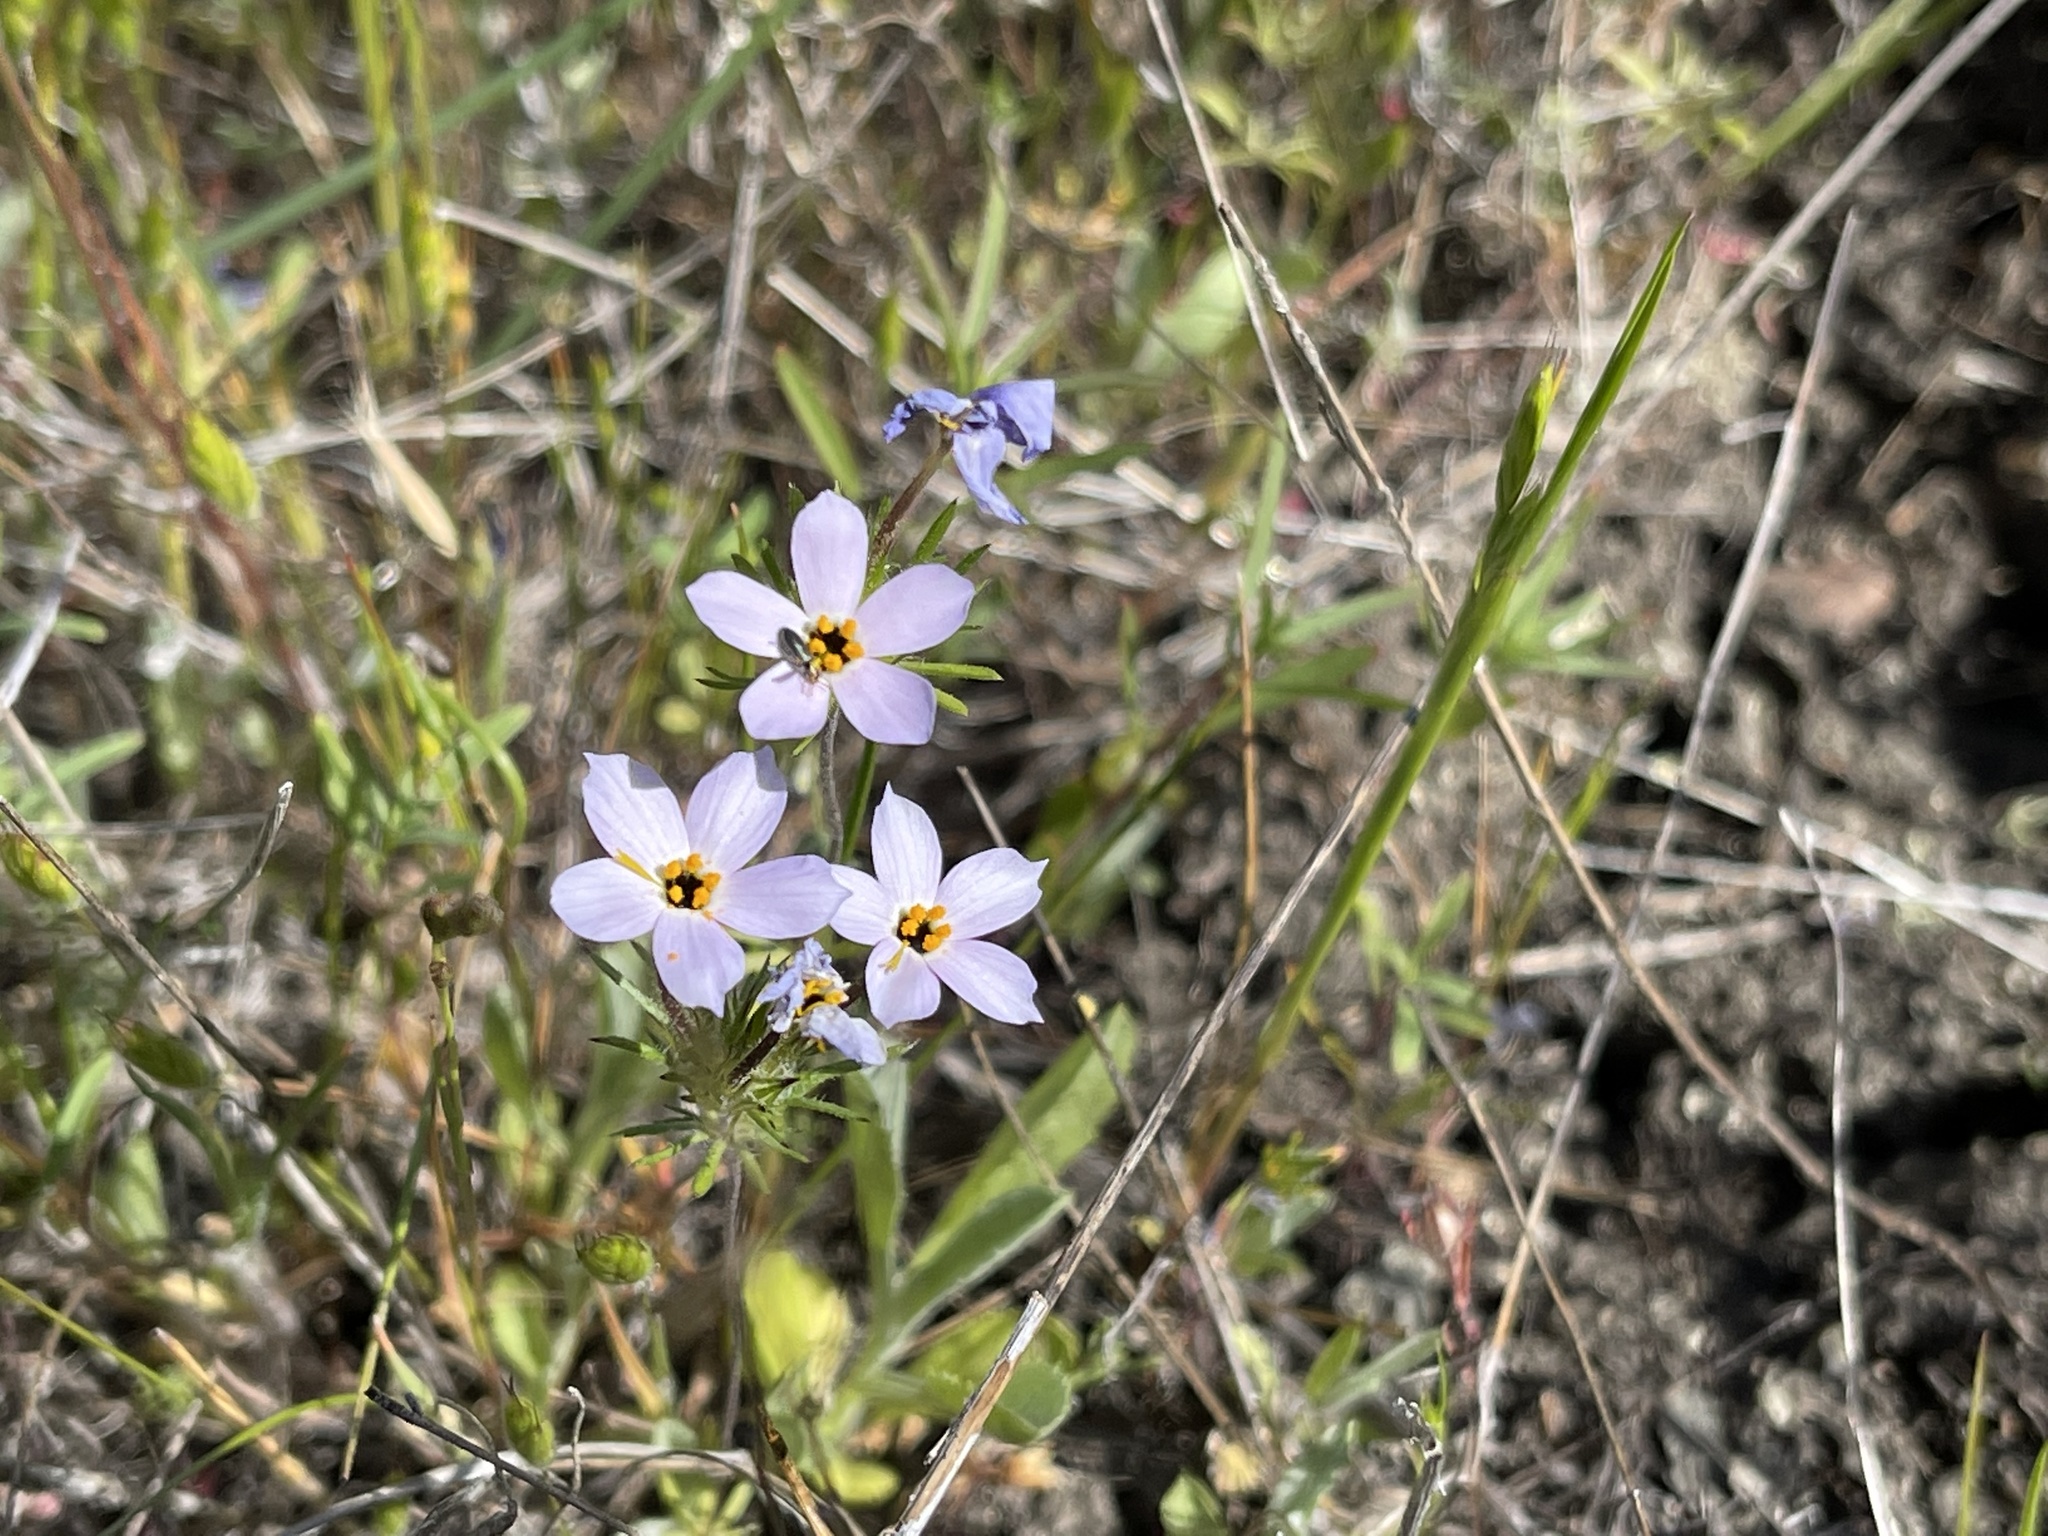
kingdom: Plantae
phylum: Tracheophyta
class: Magnoliopsida
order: Ericales
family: Polemoniaceae
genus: Leptosiphon
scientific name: Leptosiphon androsaceus
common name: False babystars
